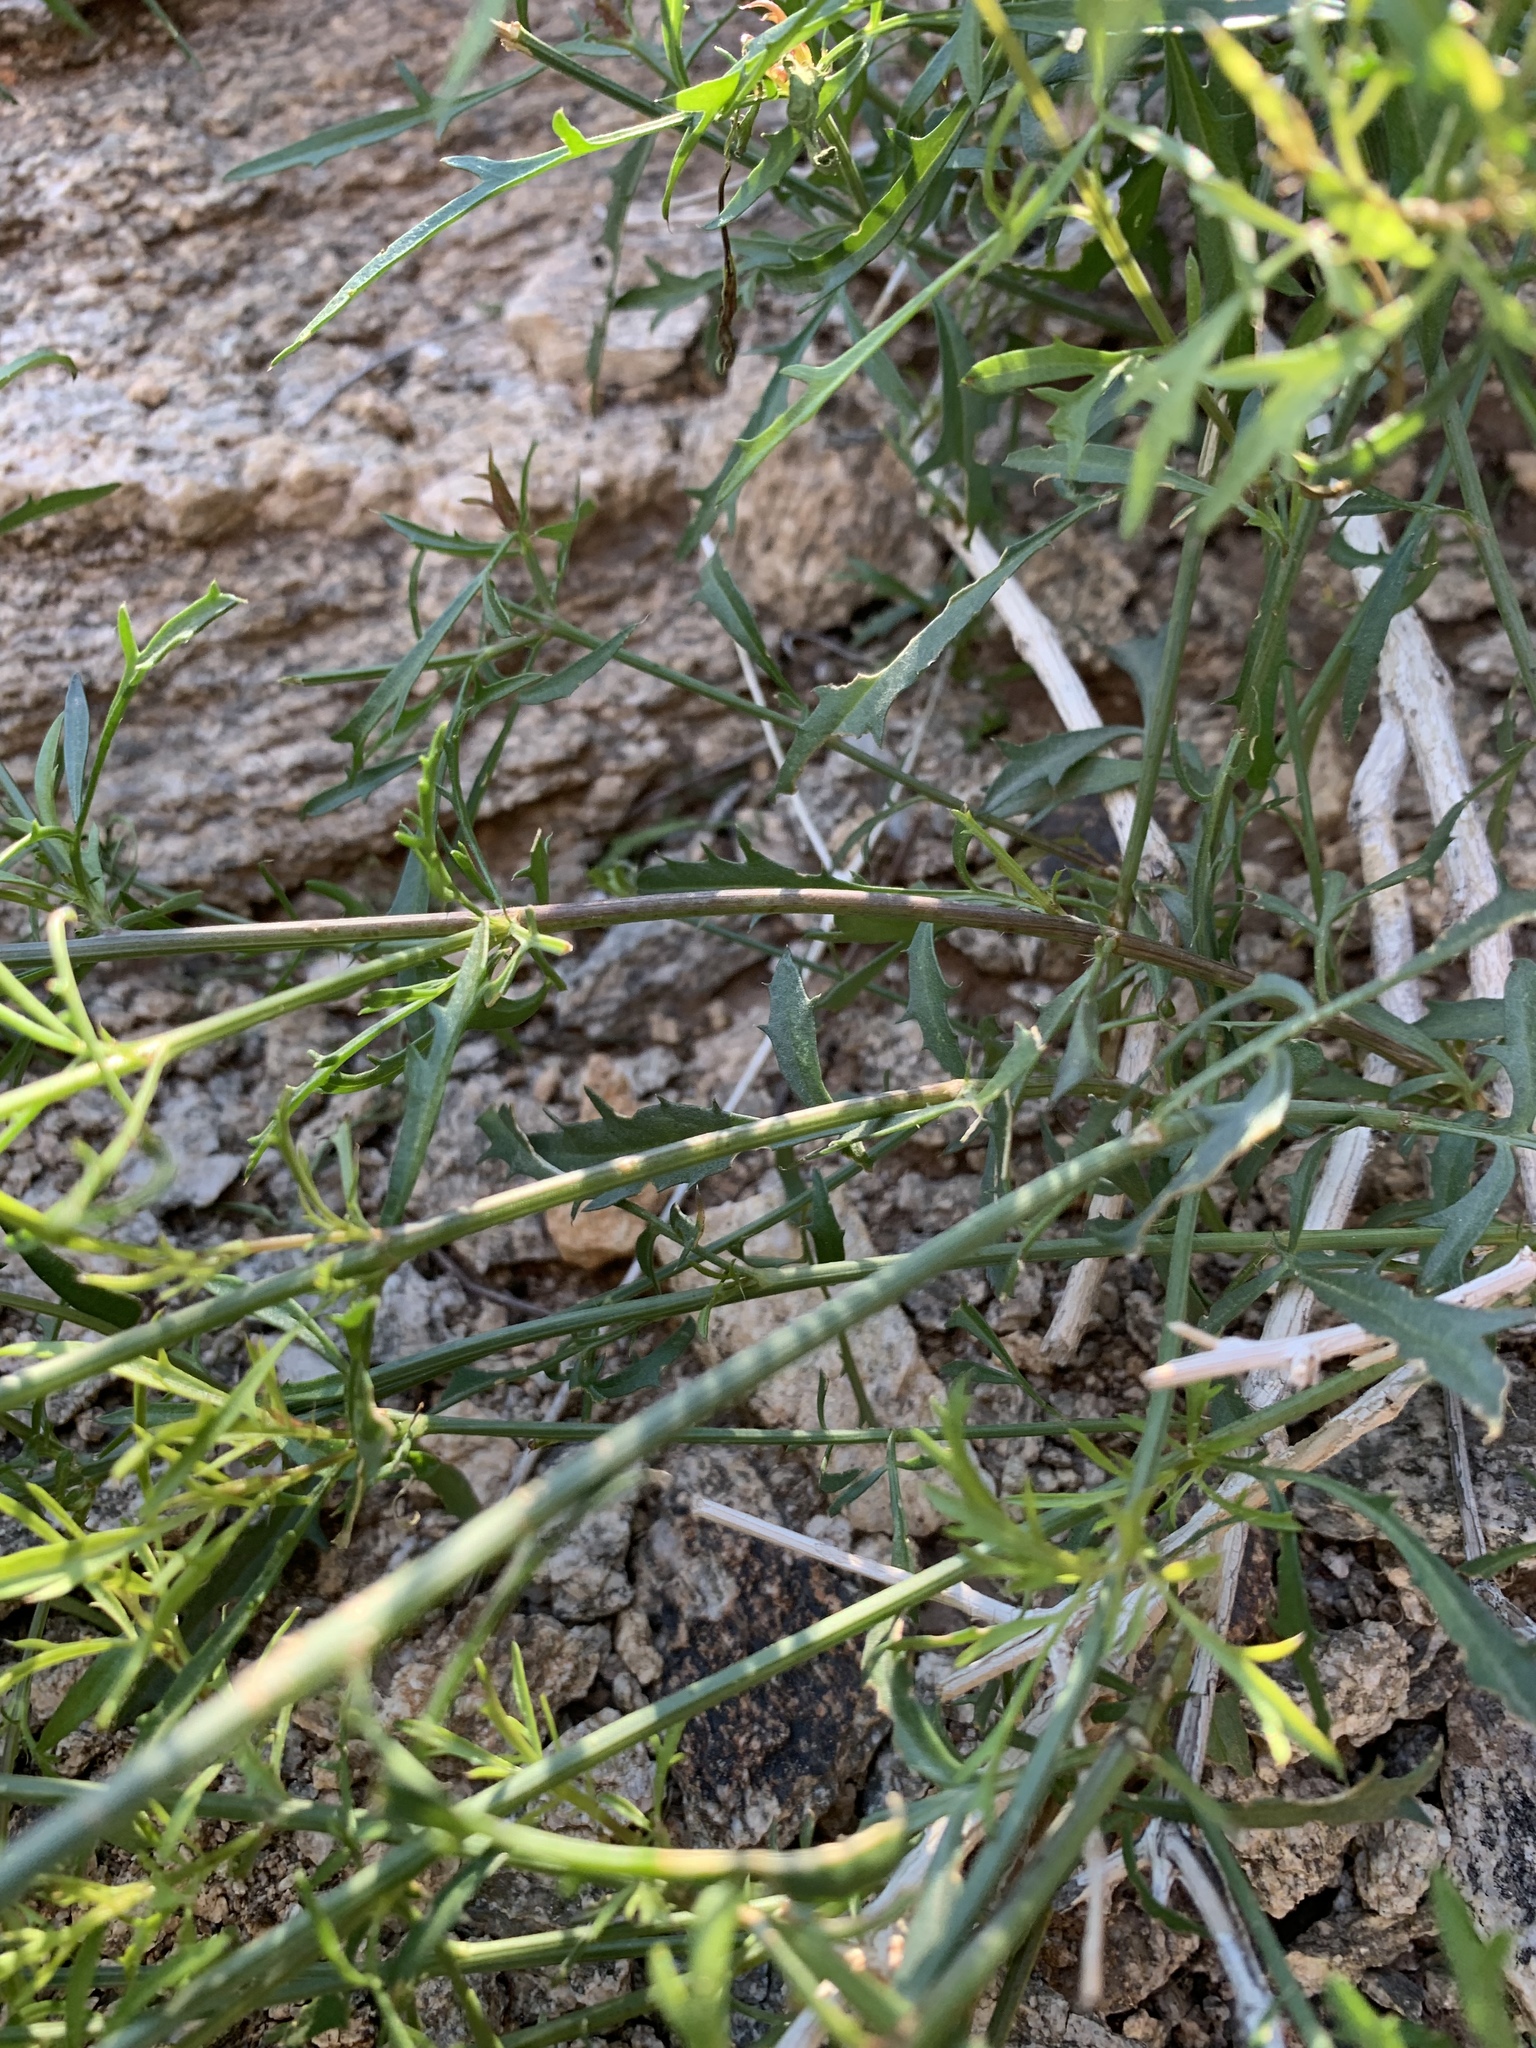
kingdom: Plantae
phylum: Tracheophyta
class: Magnoliopsida
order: Asterales
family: Asteraceae
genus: Adenophyllum
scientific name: Adenophyllum porophylloides
